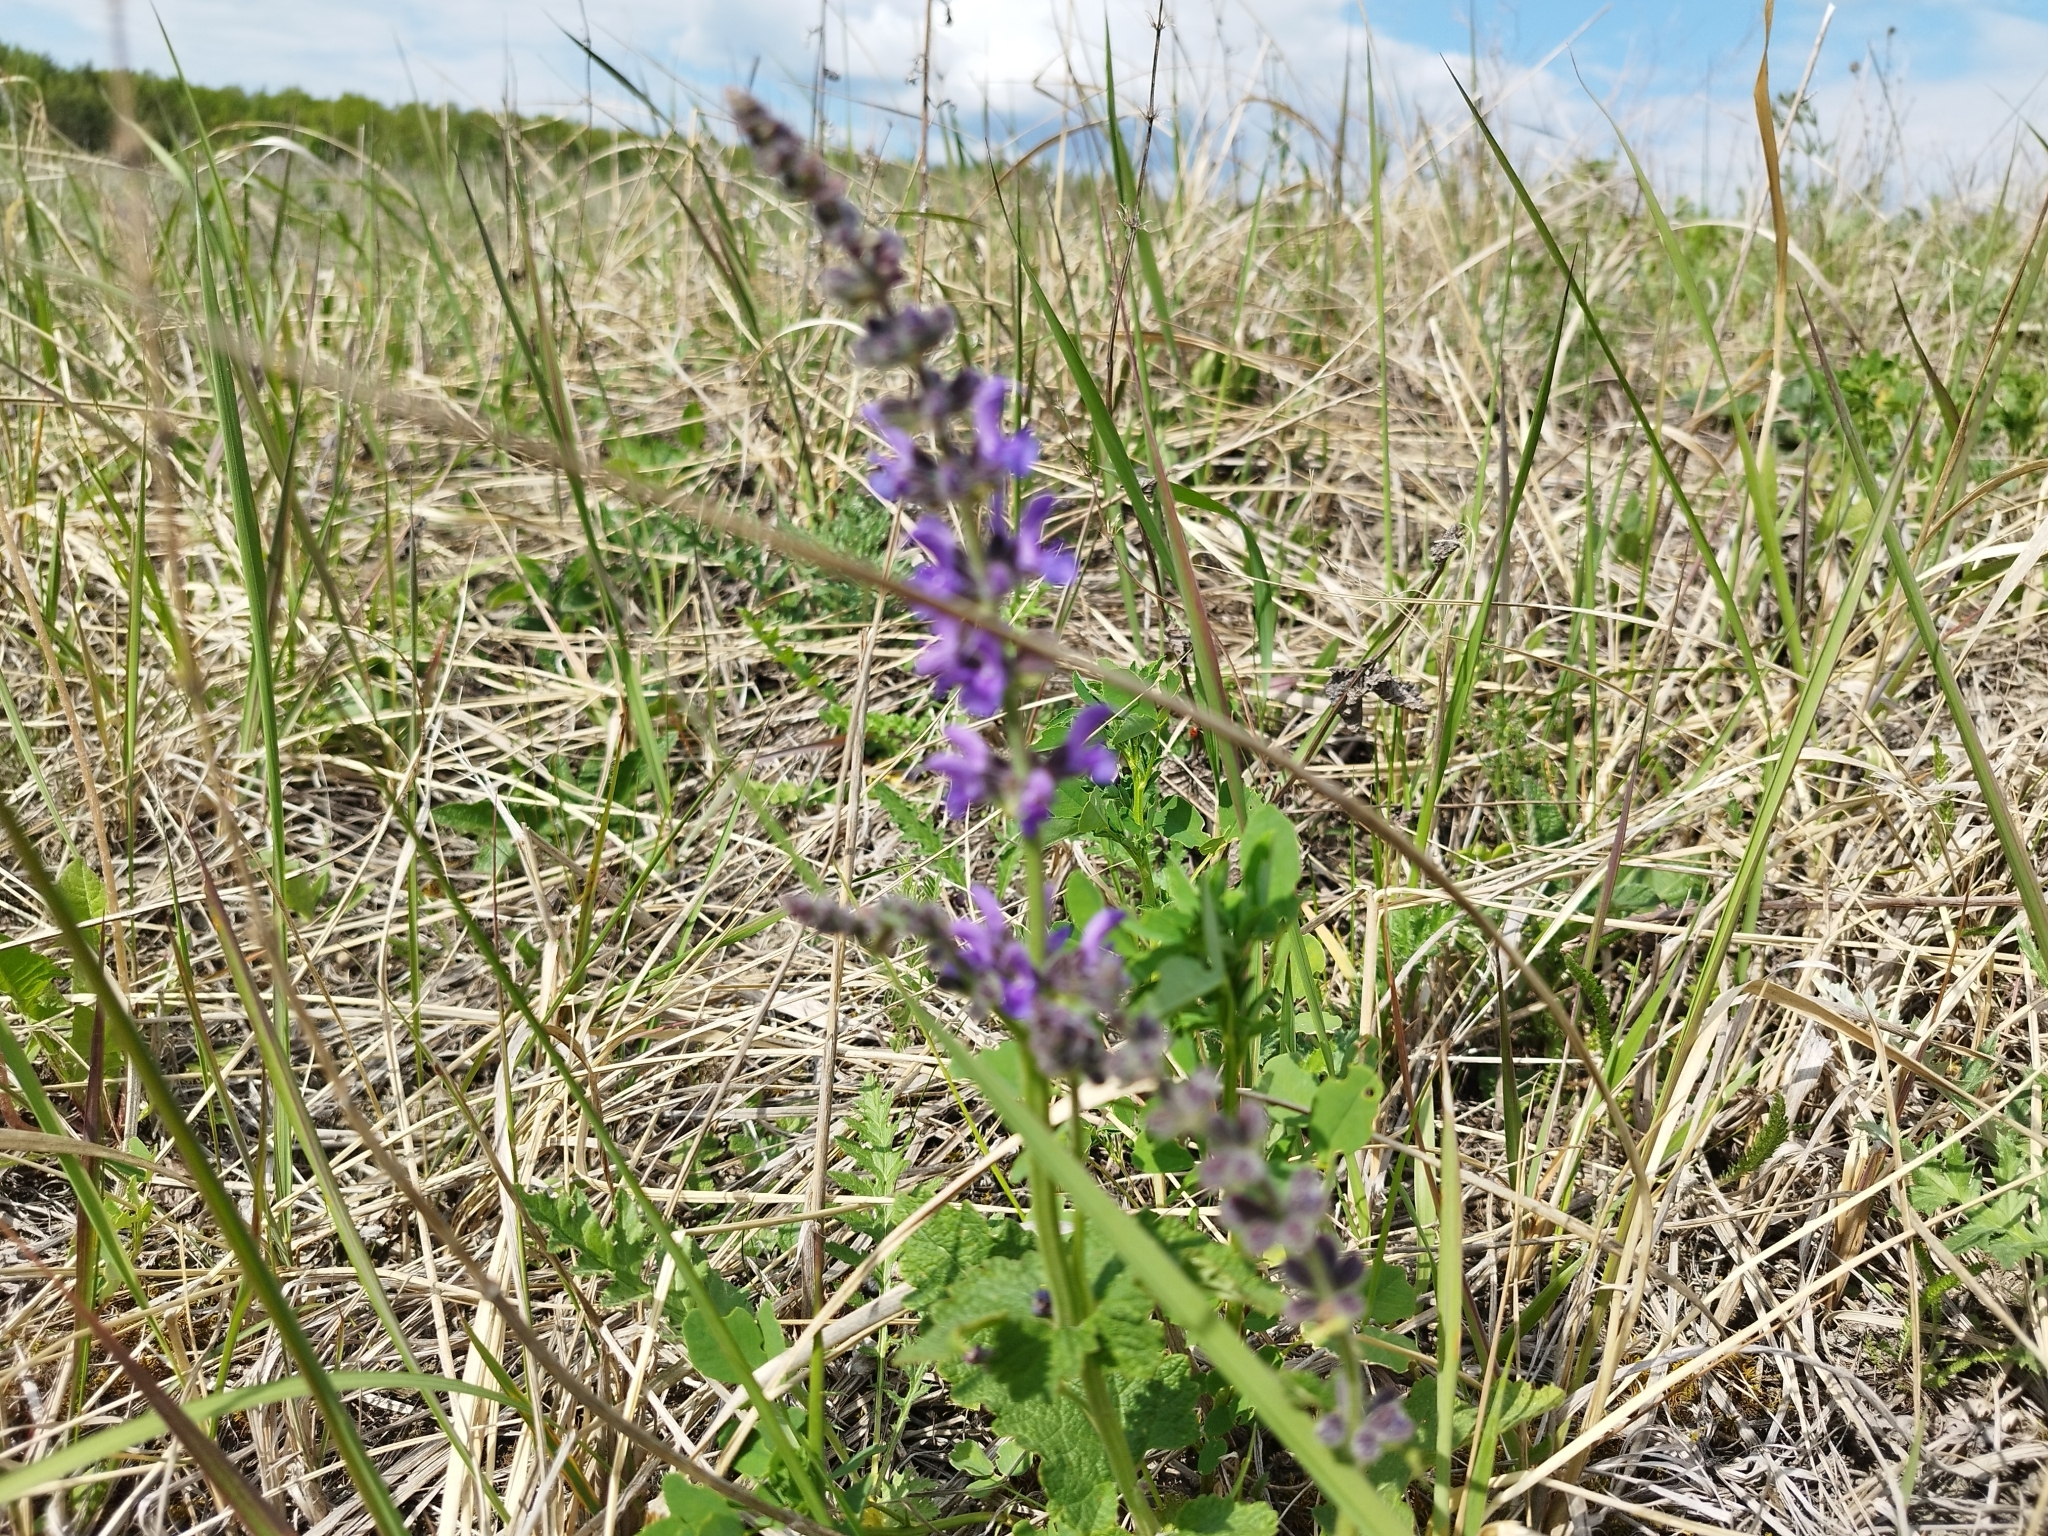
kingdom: Plantae
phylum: Tracheophyta
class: Magnoliopsida
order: Lamiales
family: Lamiaceae
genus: Salvia
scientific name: Salvia dumetorum
